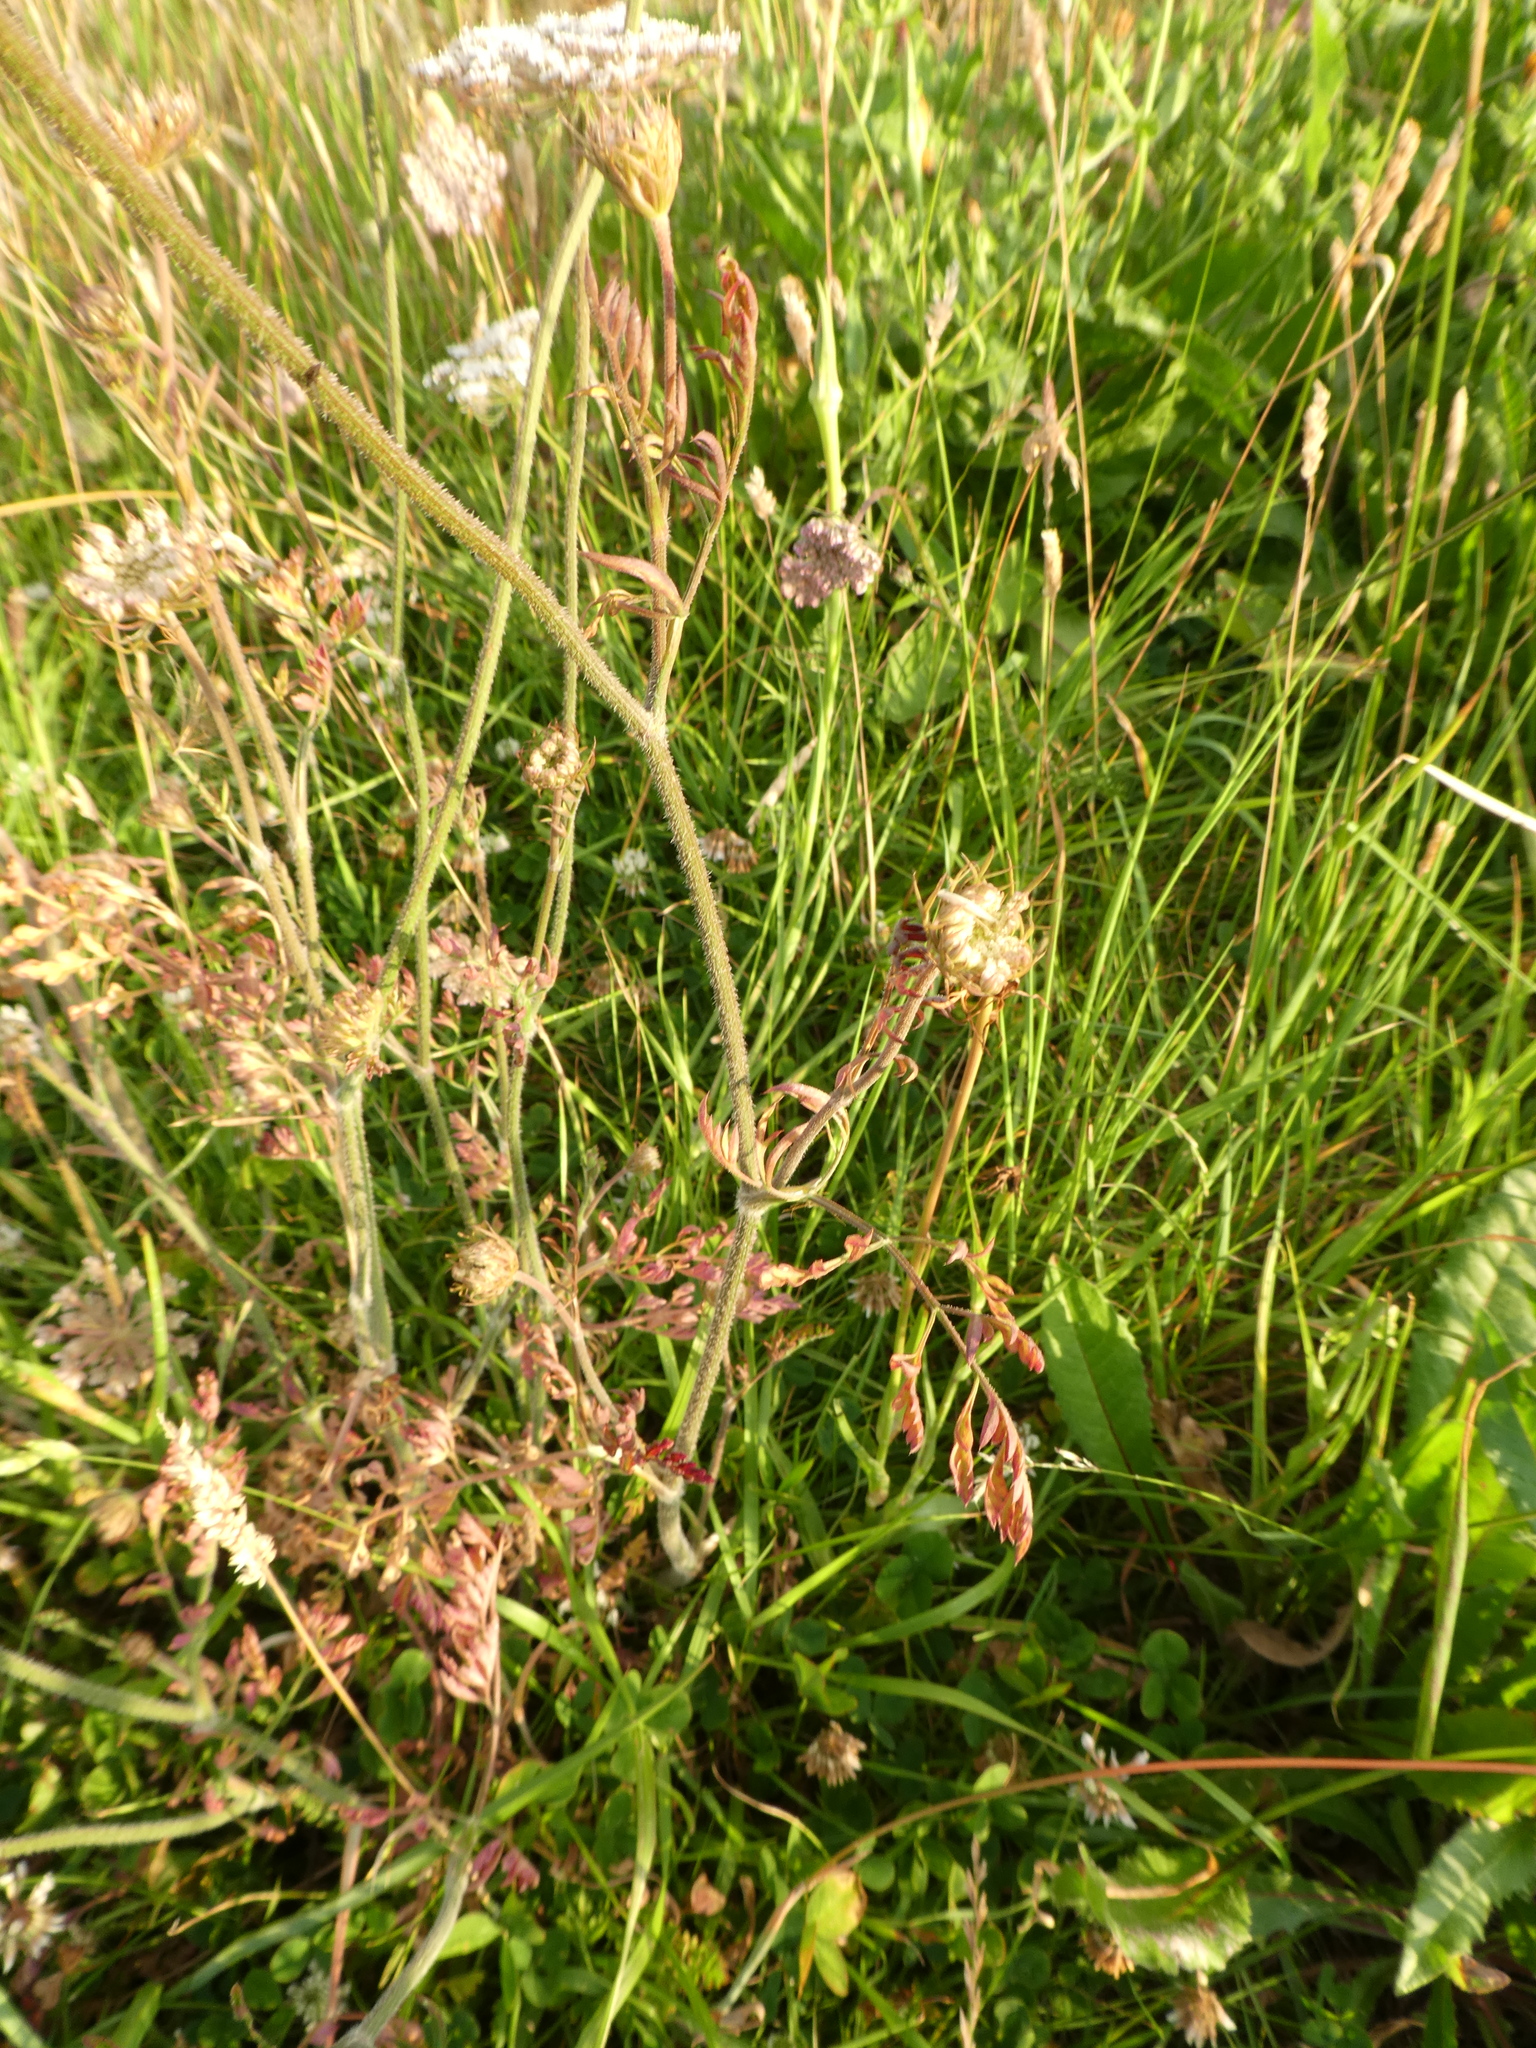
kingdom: Plantae
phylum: Tracheophyta
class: Magnoliopsida
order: Apiales
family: Apiaceae
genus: Daucus
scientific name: Daucus carota
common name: Wild carrot
